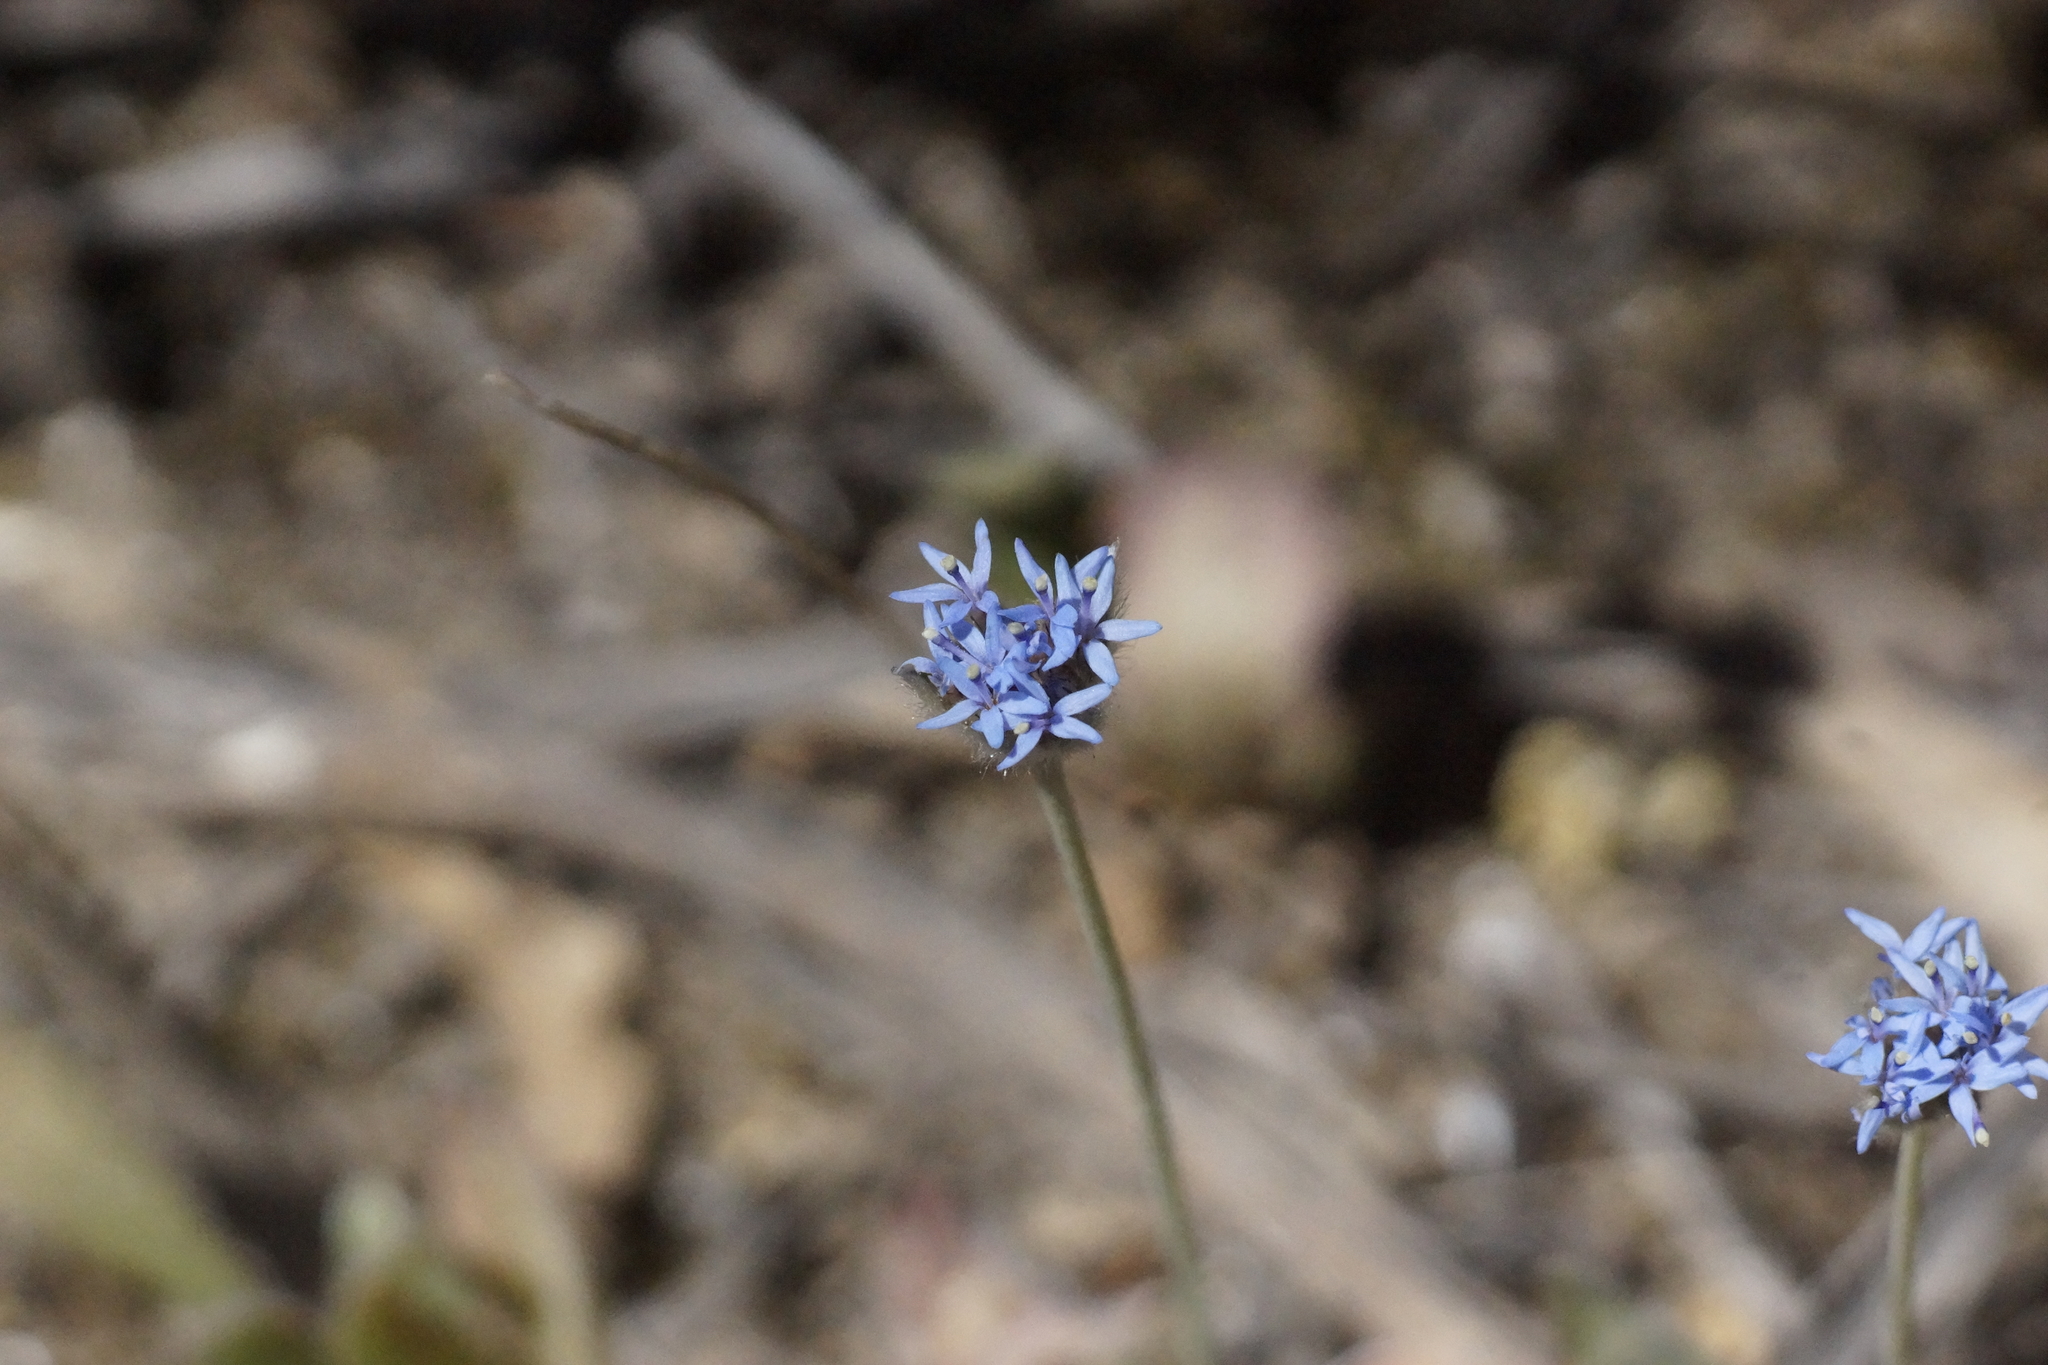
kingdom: Plantae
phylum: Tracheophyta
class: Magnoliopsida
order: Asterales
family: Goodeniaceae
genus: Brunonia
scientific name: Brunonia australis
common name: Blue pincushion
